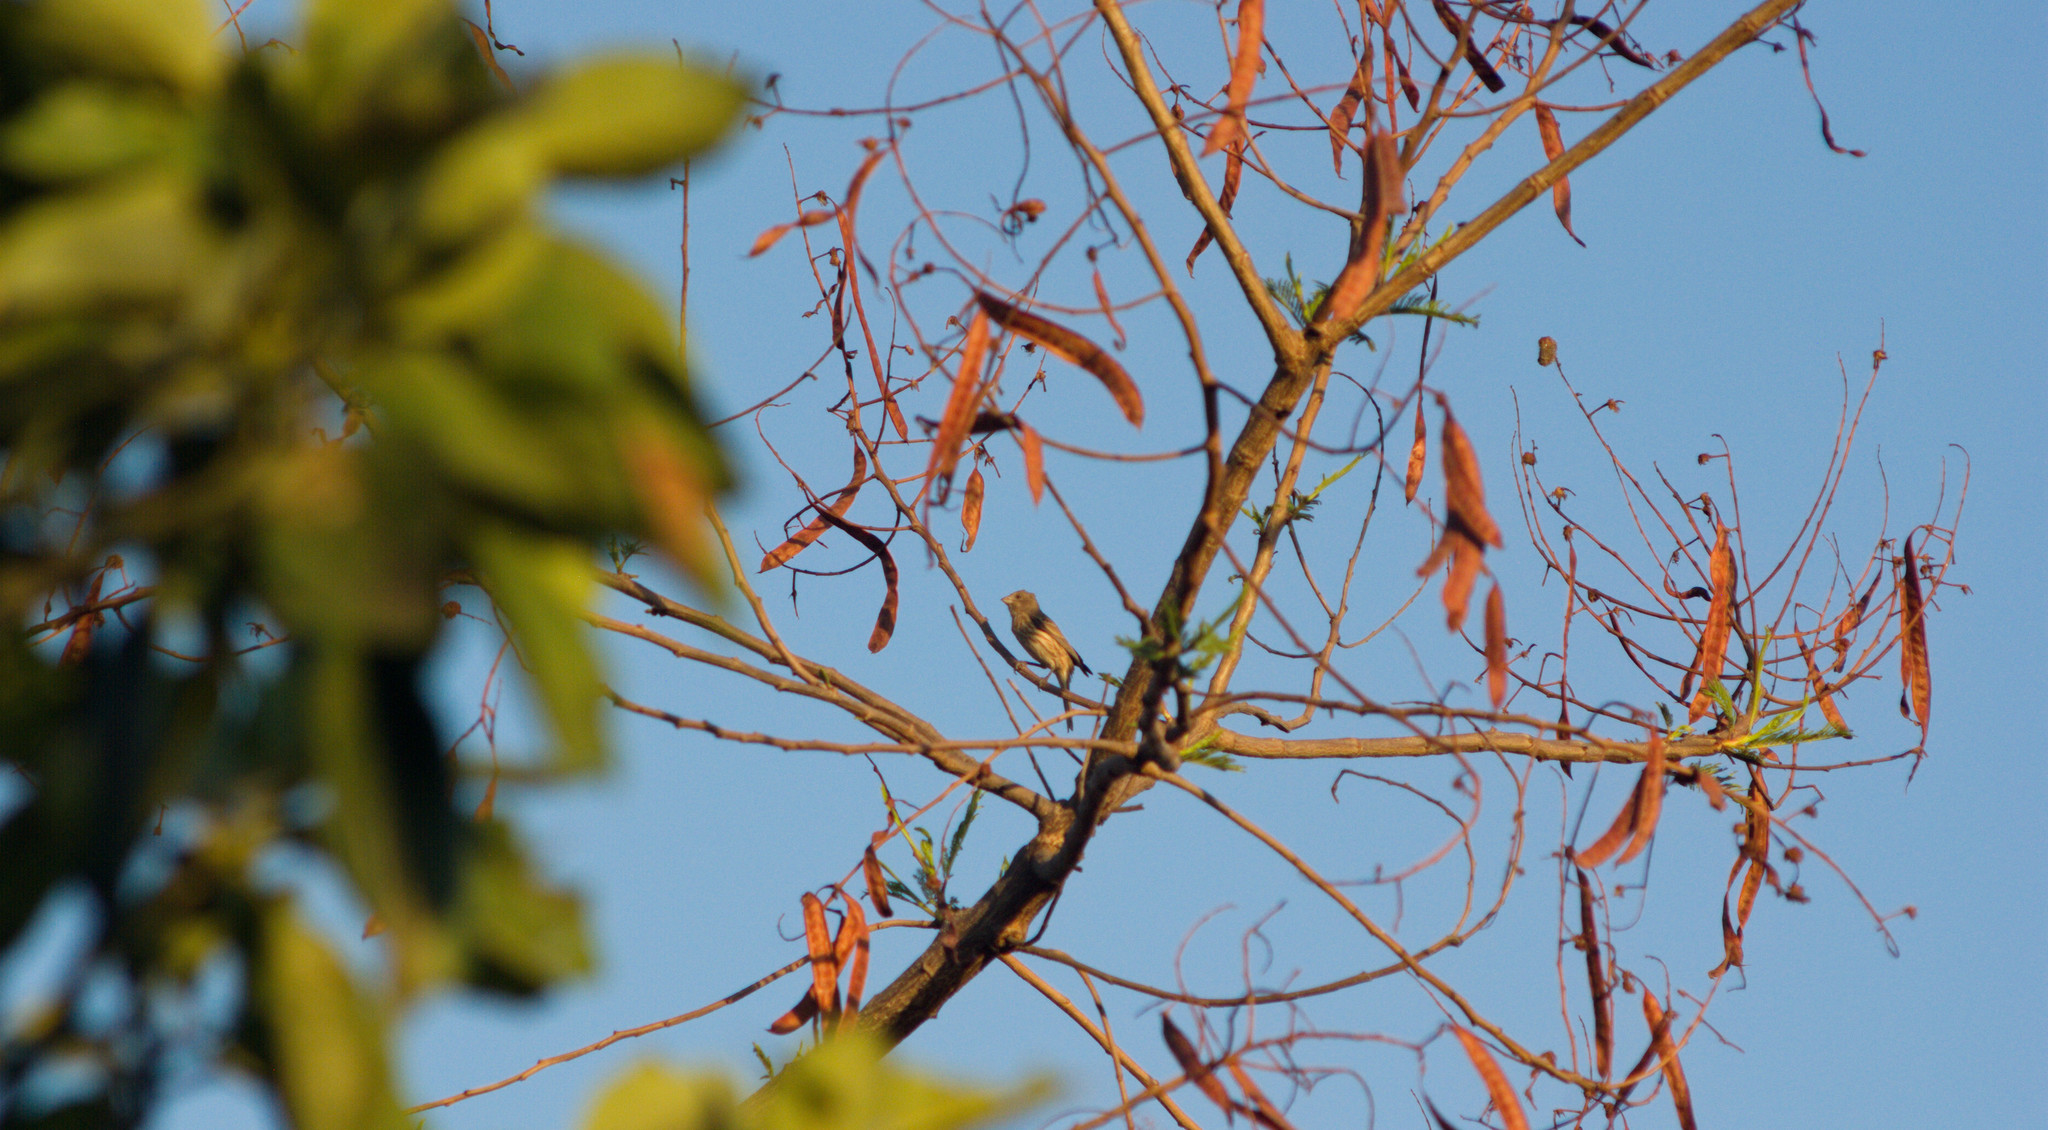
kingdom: Animalia
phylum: Chordata
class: Aves
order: Passeriformes
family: Fringillidae
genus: Haemorhous
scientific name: Haemorhous mexicanus
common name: House finch
